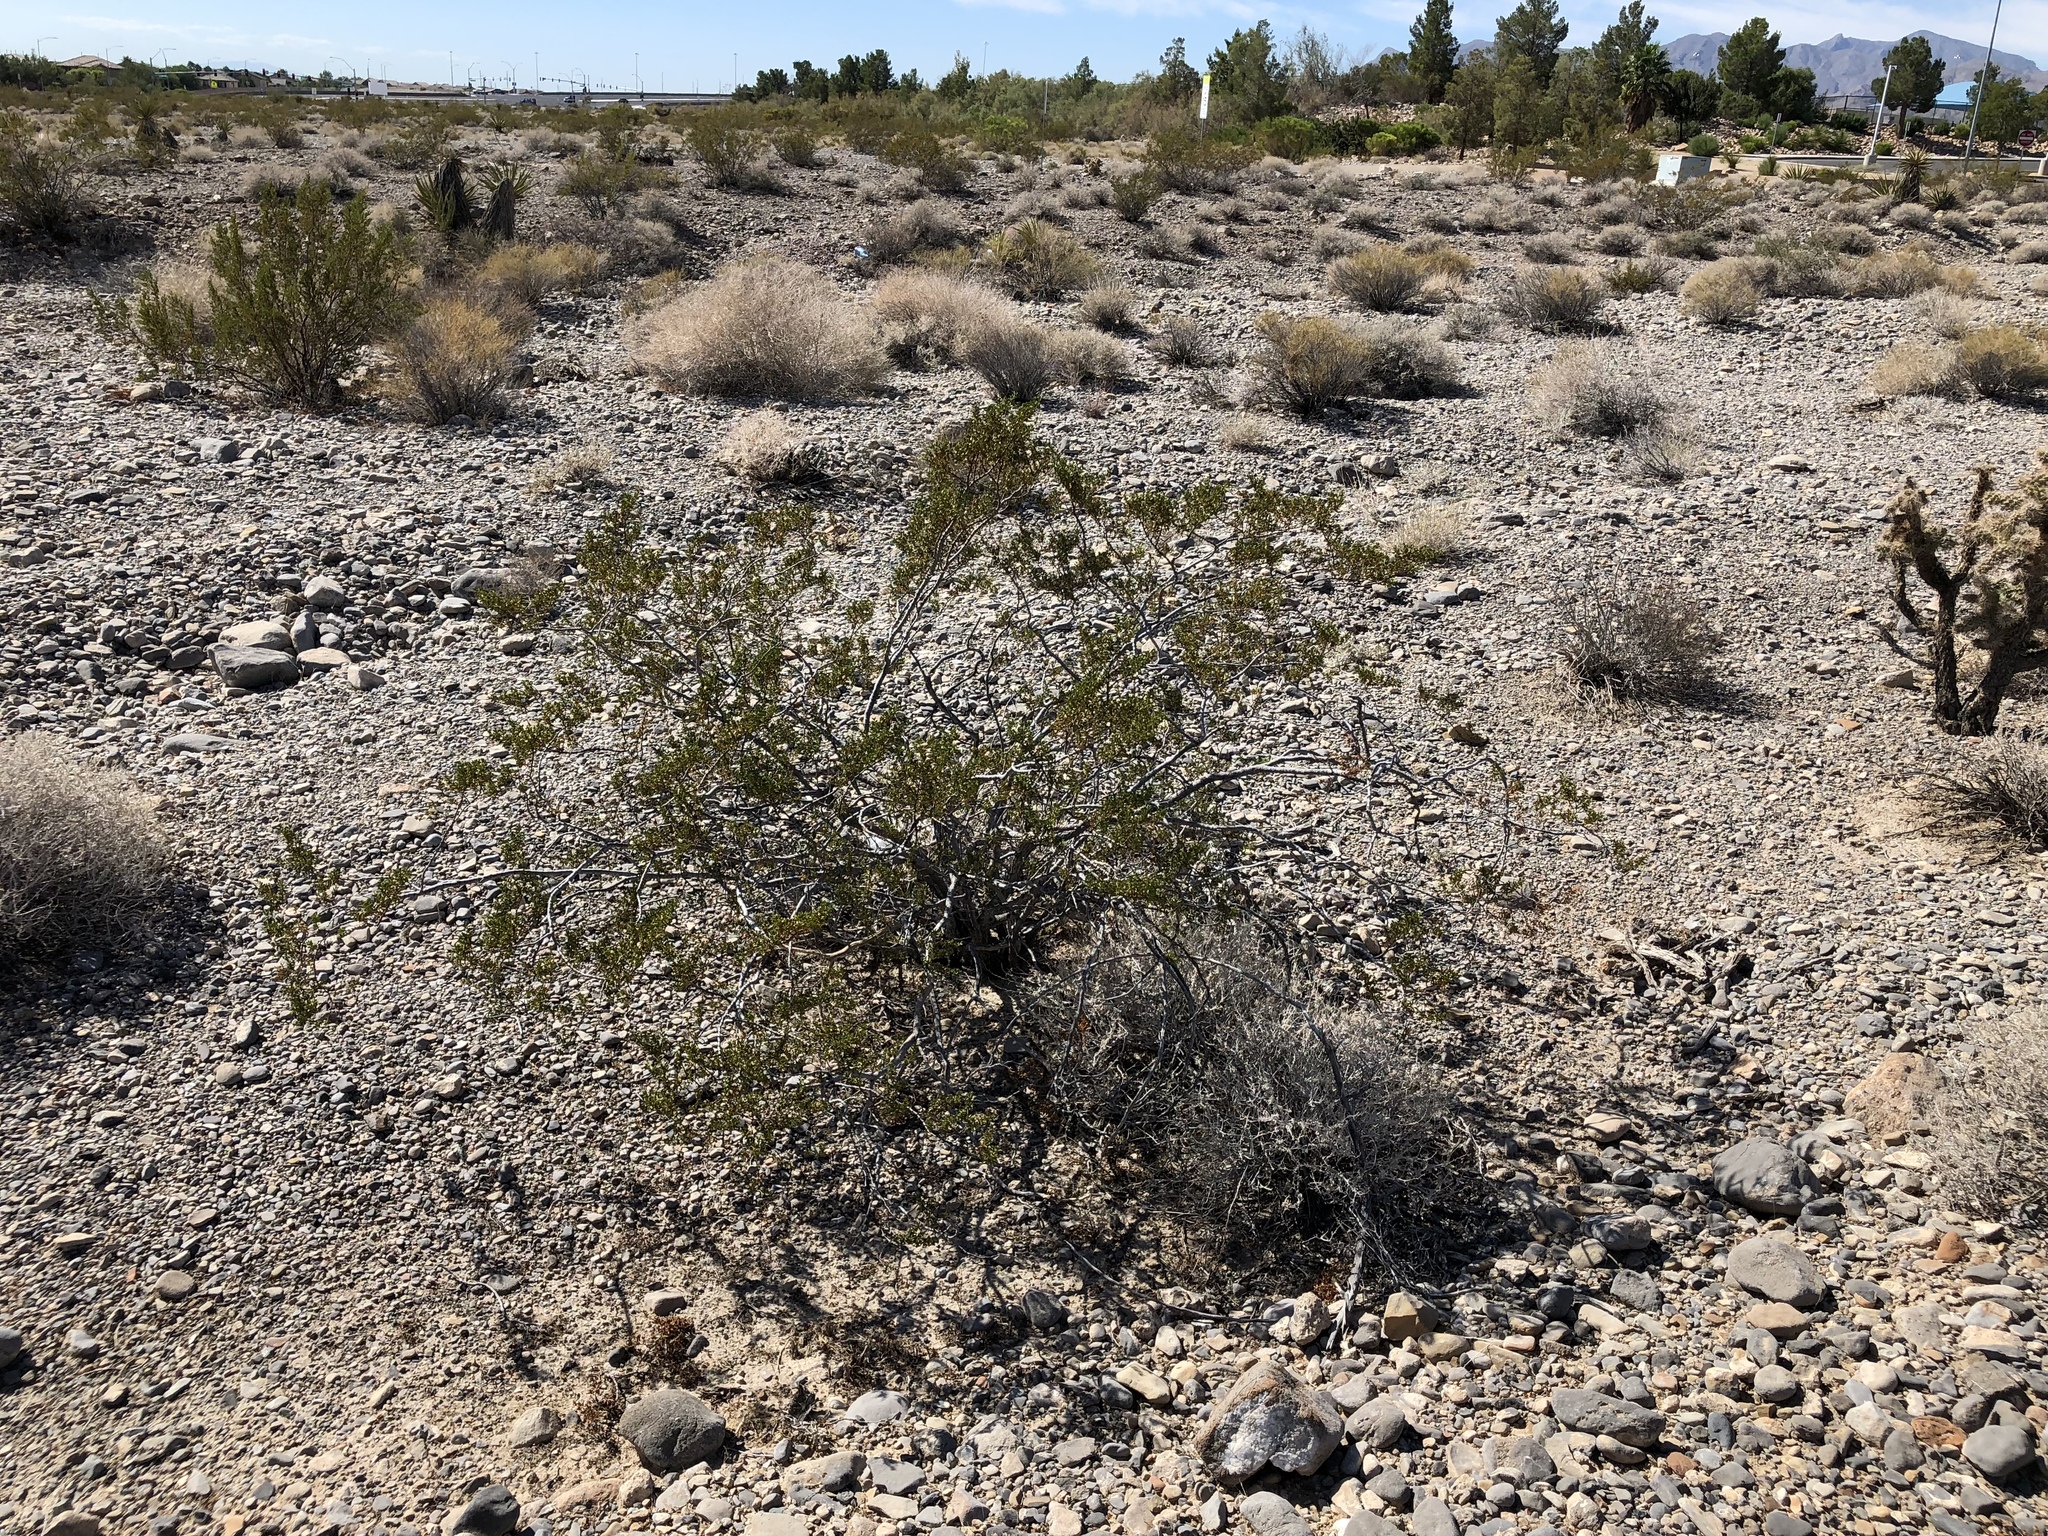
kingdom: Plantae
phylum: Tracheophyta
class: Magnoliopsida
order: Zygophyllales
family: Zygophyllaceae
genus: Larrea
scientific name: Larrea tridentata
